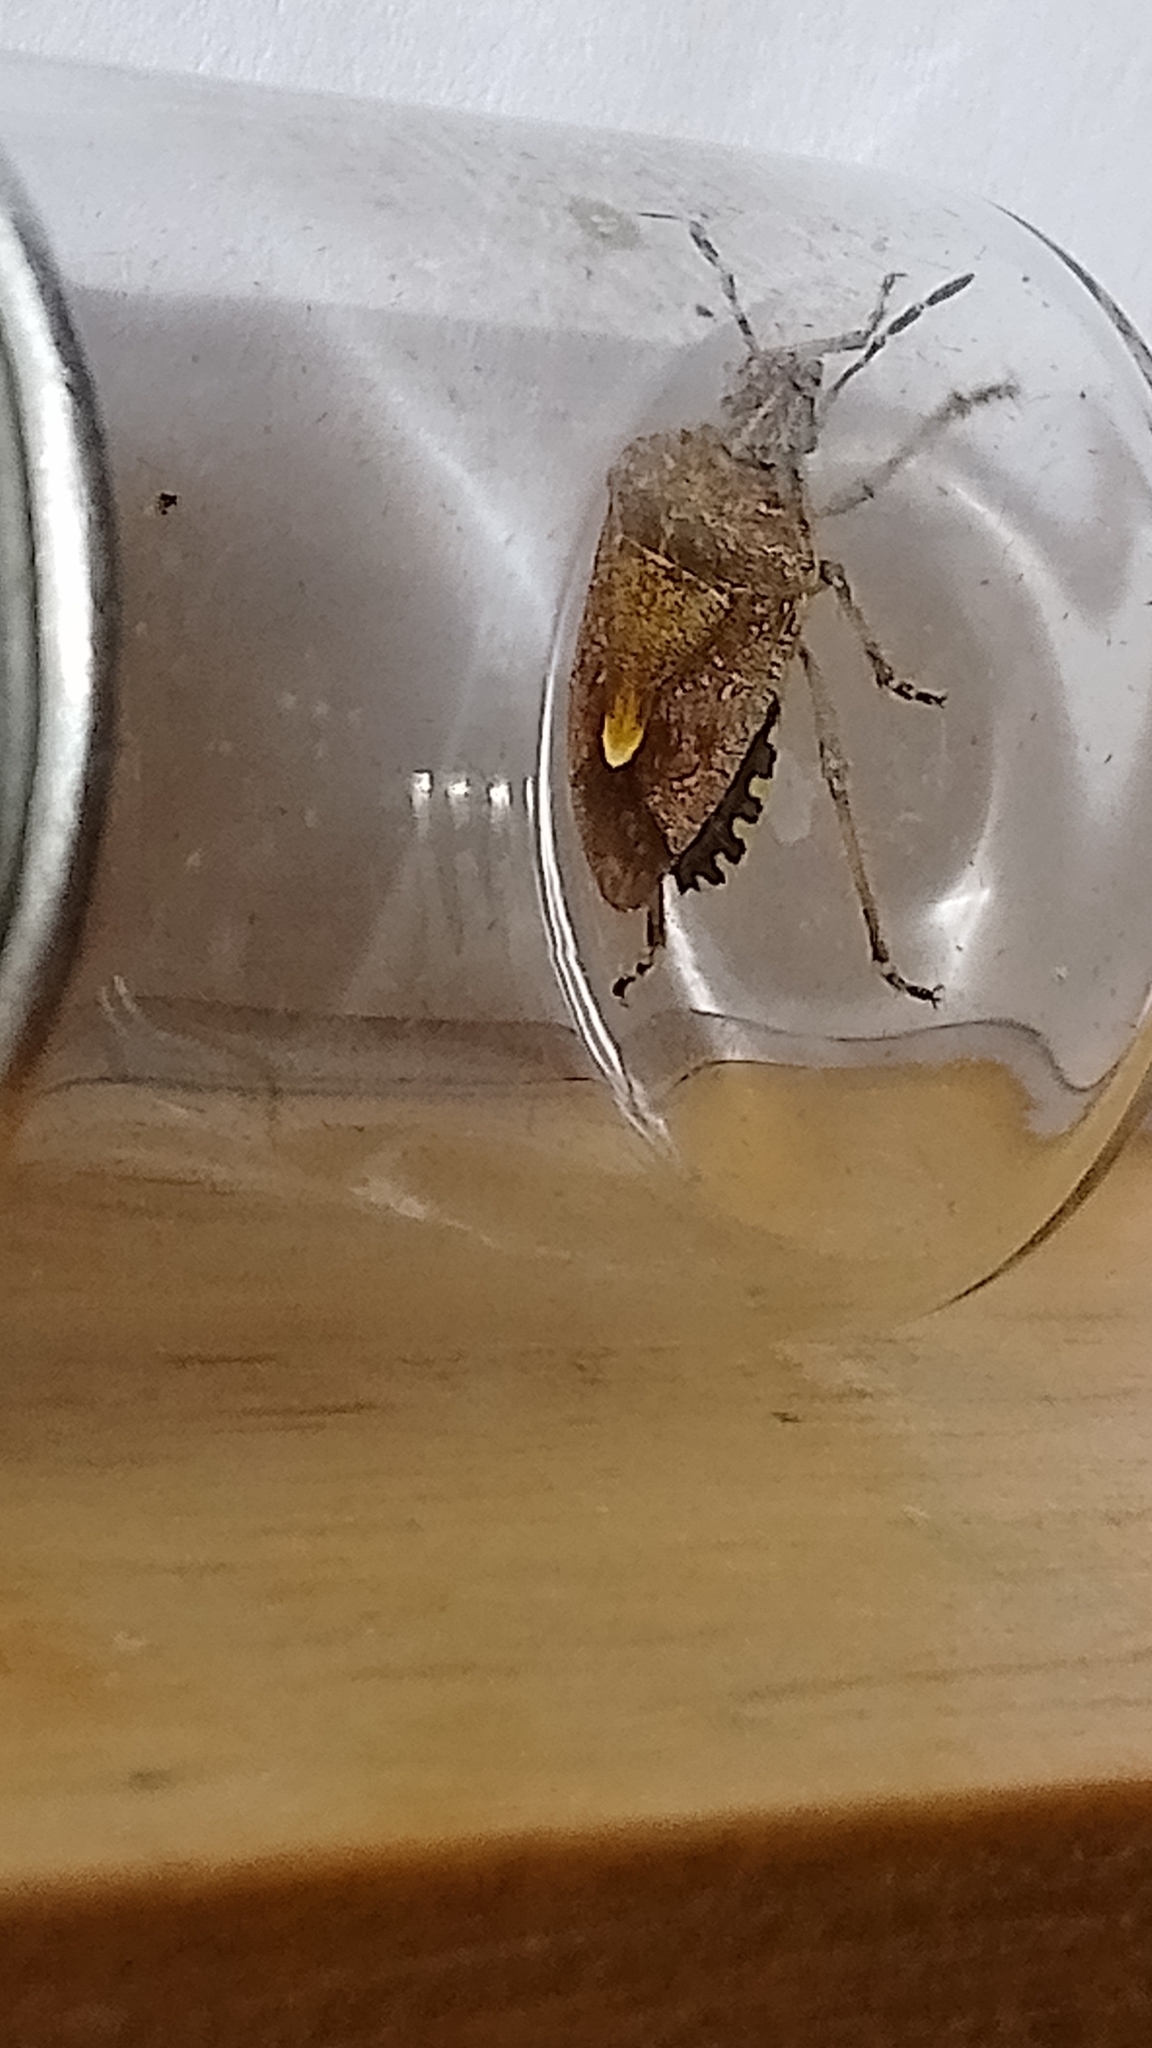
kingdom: Animalia
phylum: Arthropoda
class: Insecta
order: Hemiptera
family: Pentatomidae
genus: Dolycoris
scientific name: Dolycoris baccarum
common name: Sloe bug
